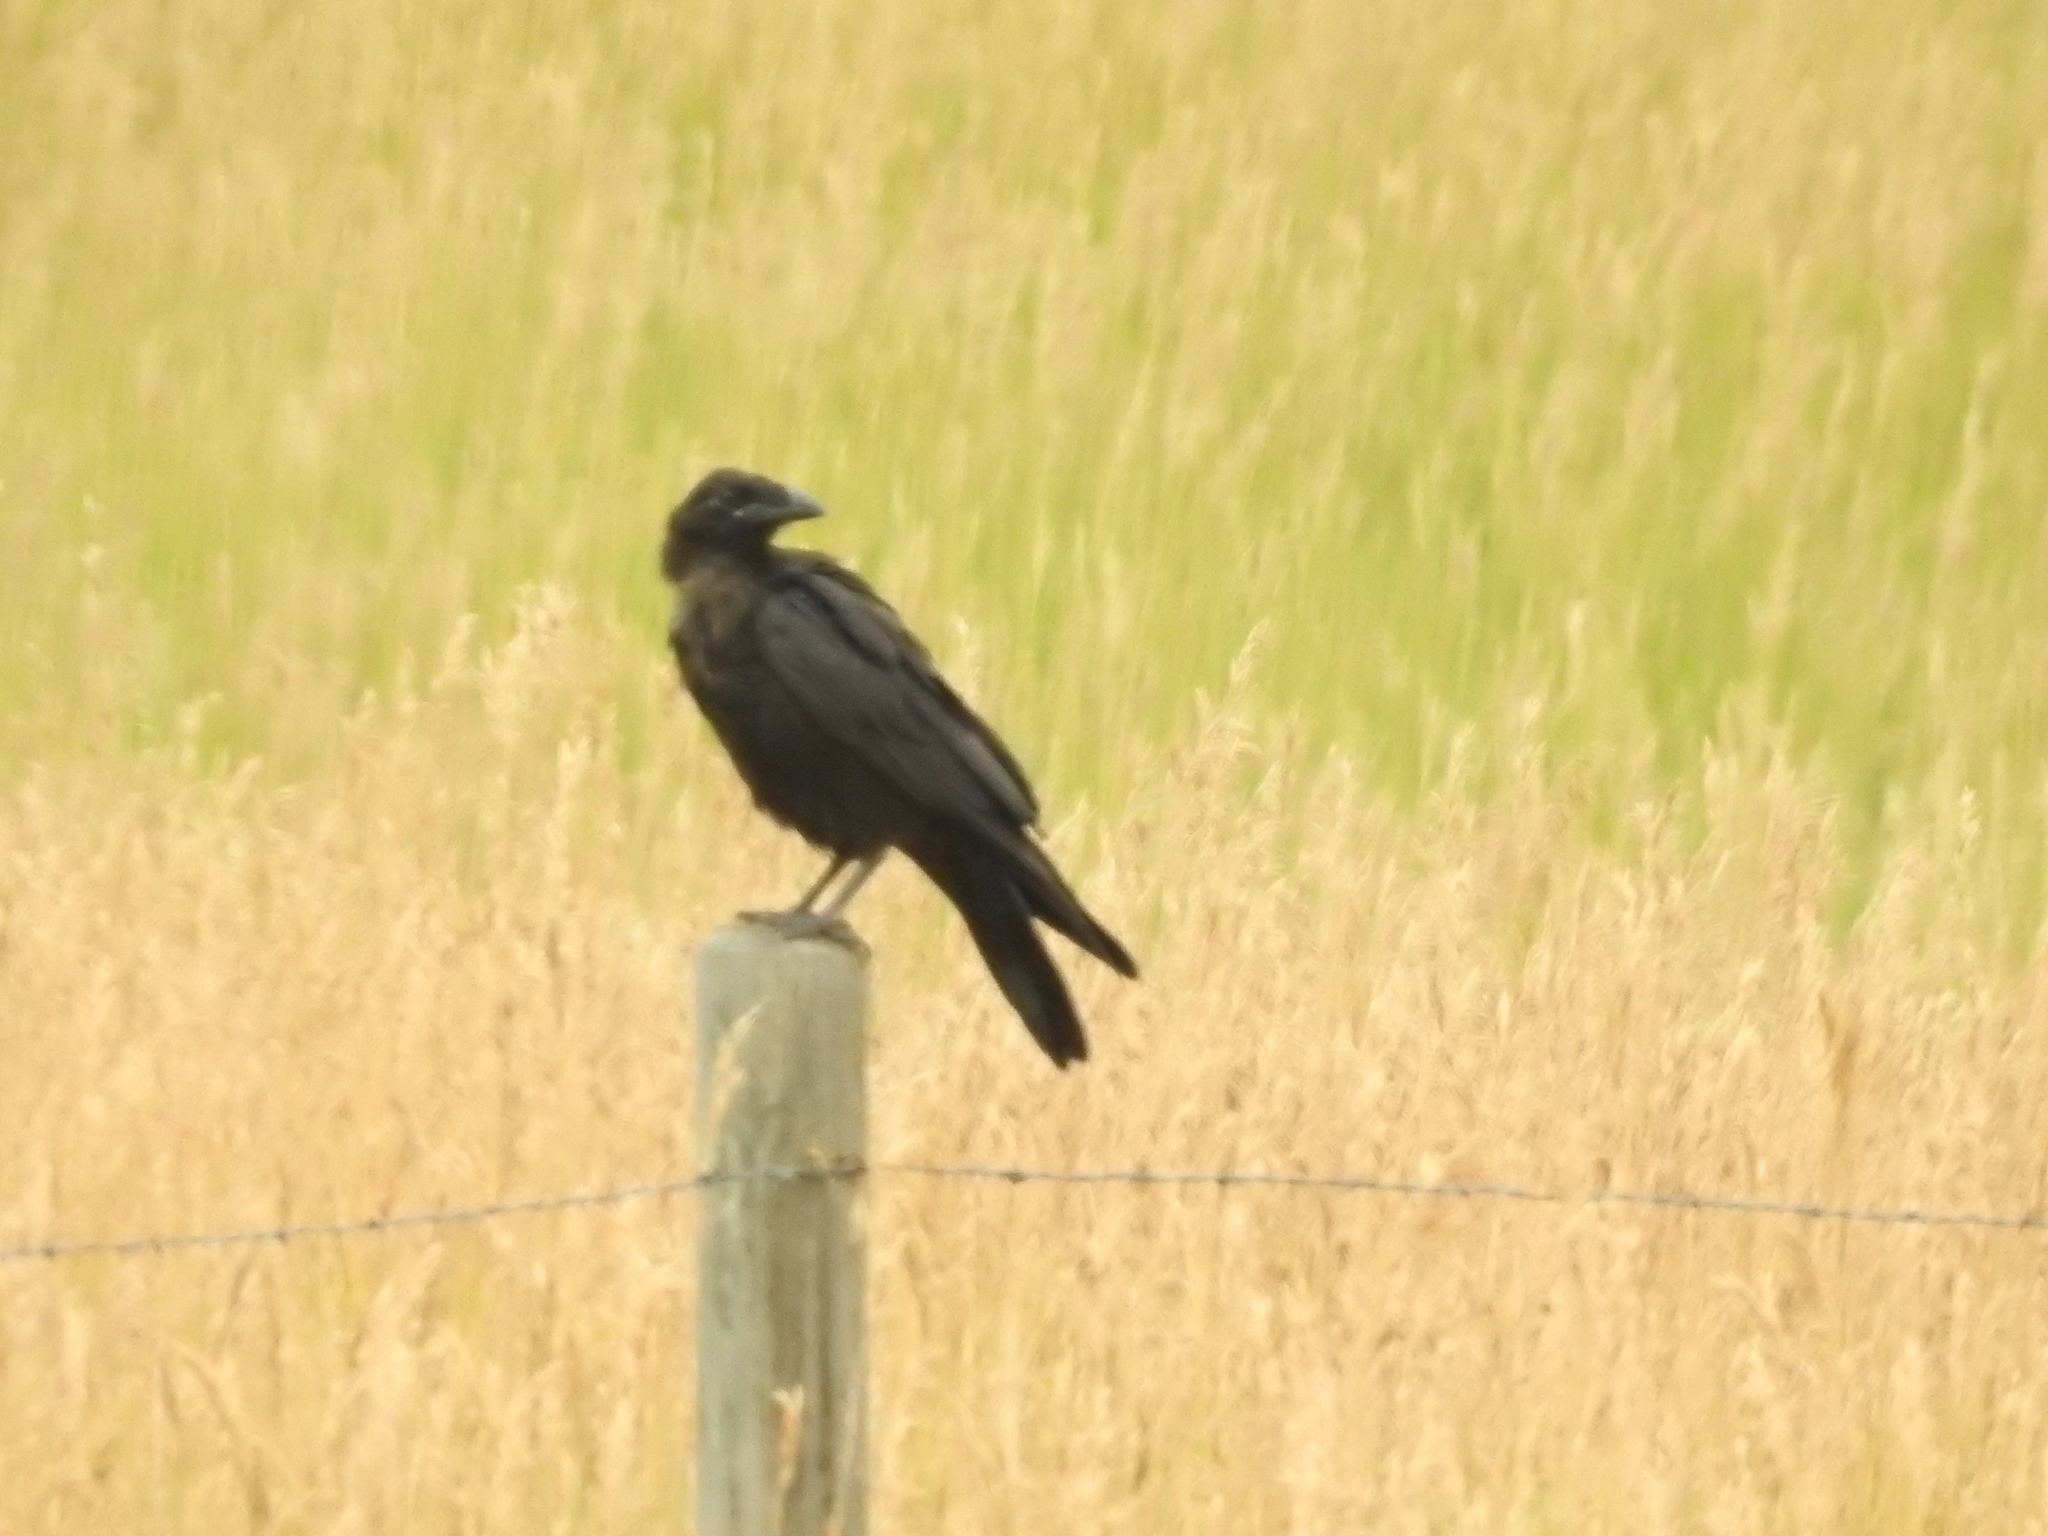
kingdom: Animalia
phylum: Chordata
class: Aves
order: Passeriformes
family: Corvidae
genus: Corvus
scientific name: Corvus corax
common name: Common raven
